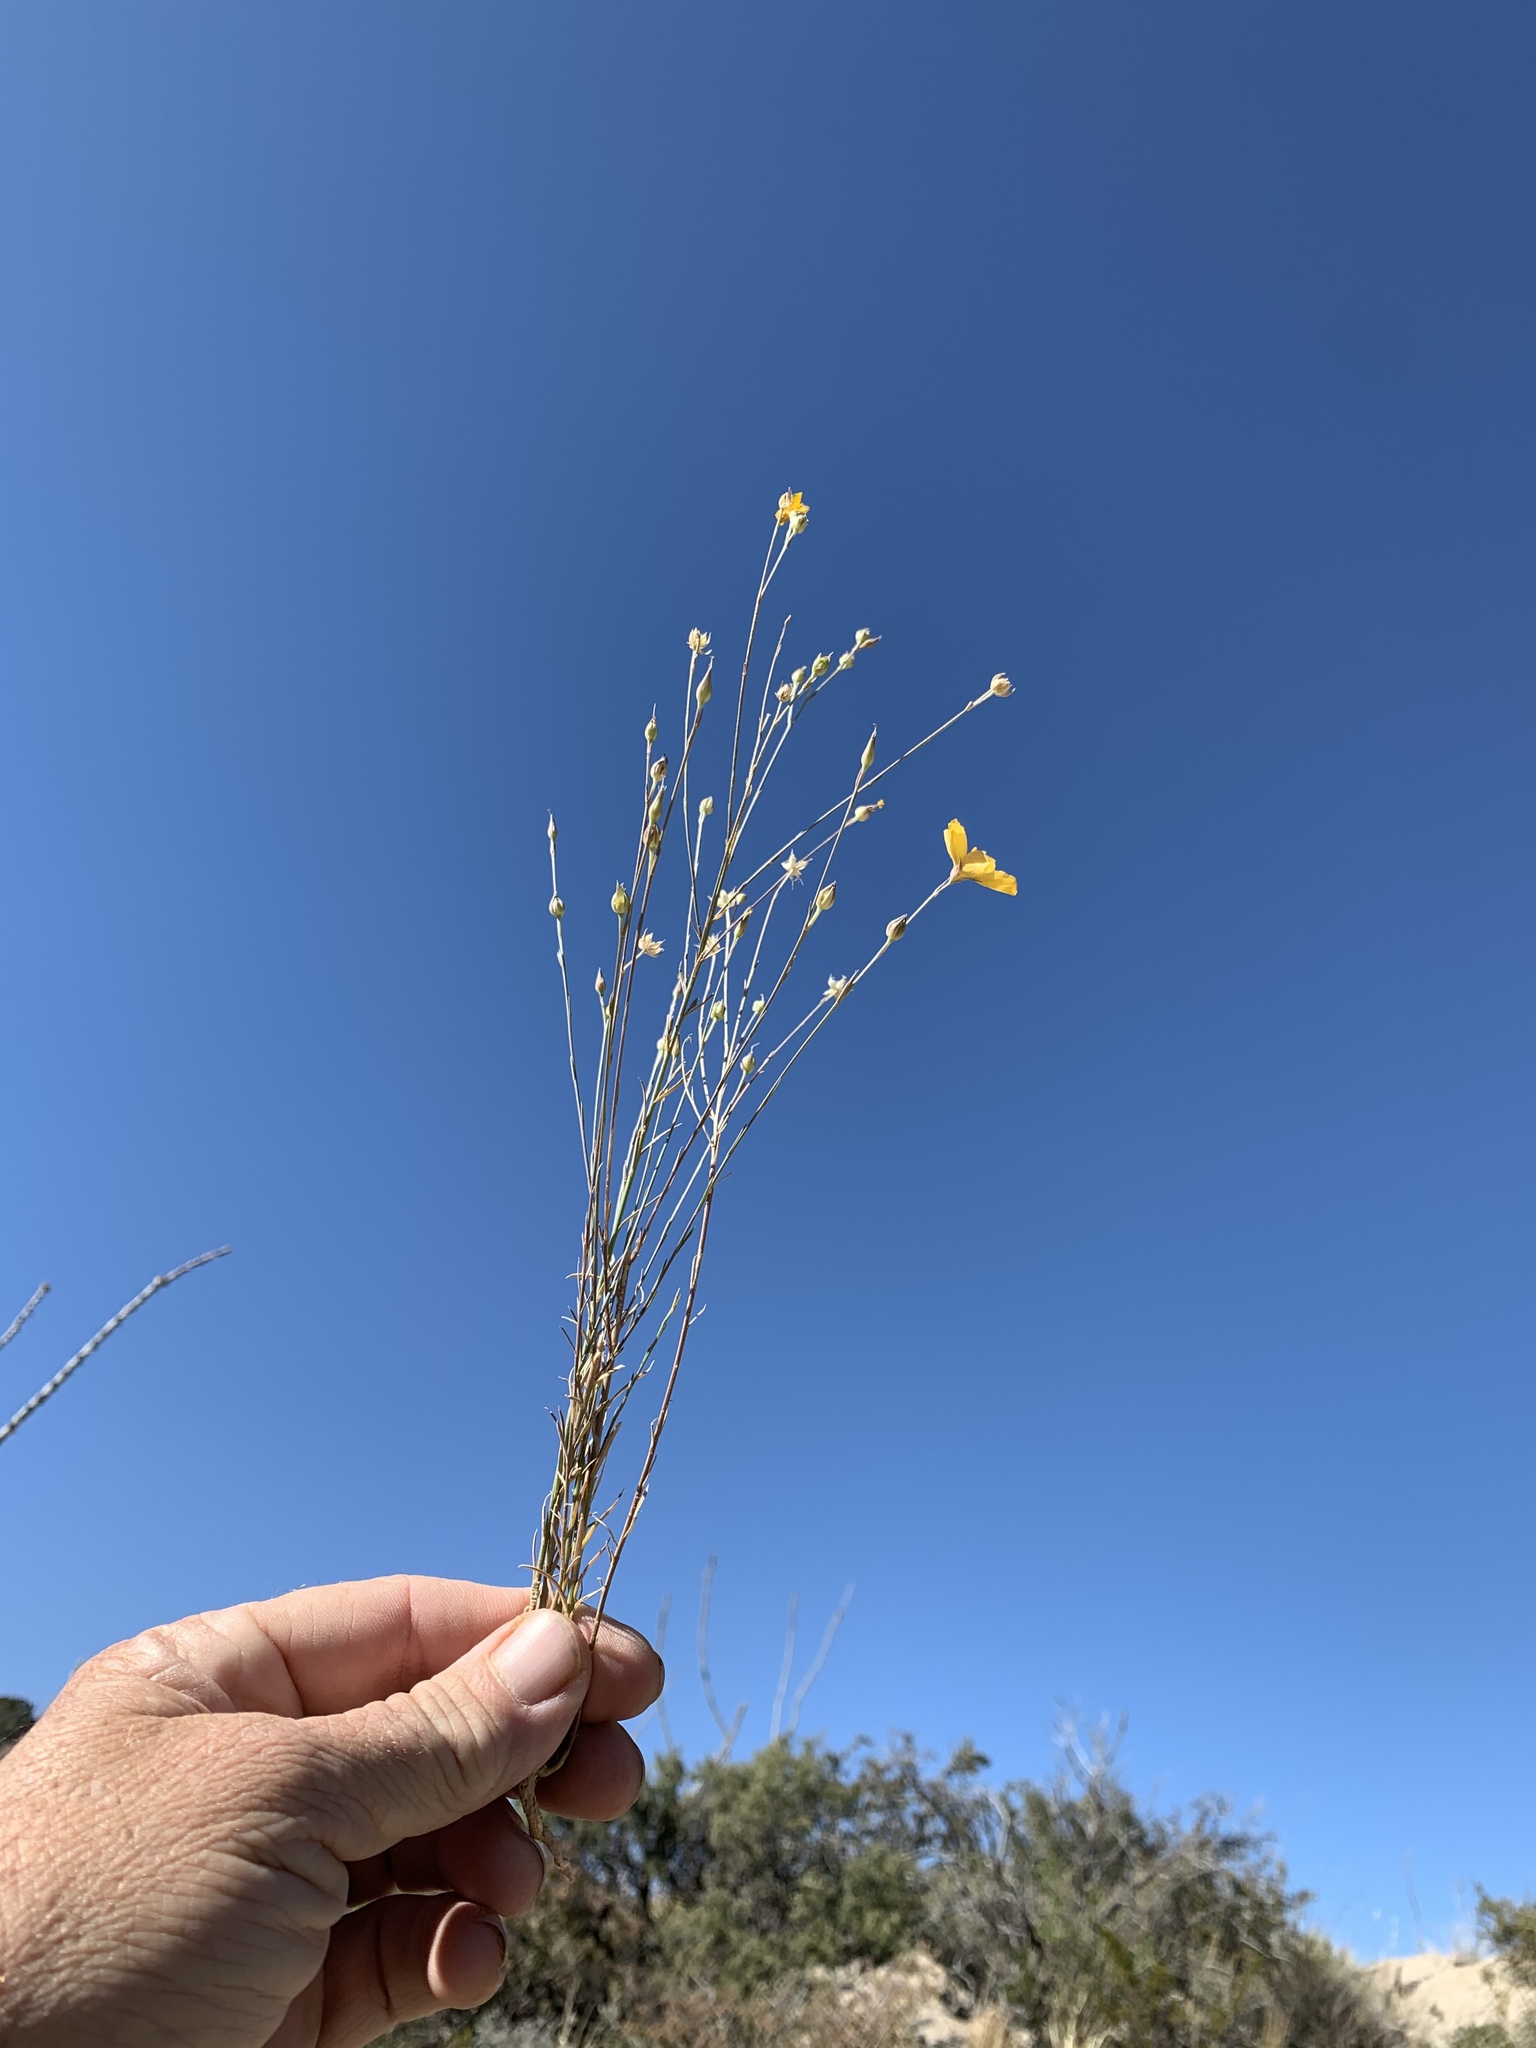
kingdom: Plantae
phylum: Tracheophyta
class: Magnoliopsida
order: Malpighiales
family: Linaceae
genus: Linum
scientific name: Linum berlandieri
